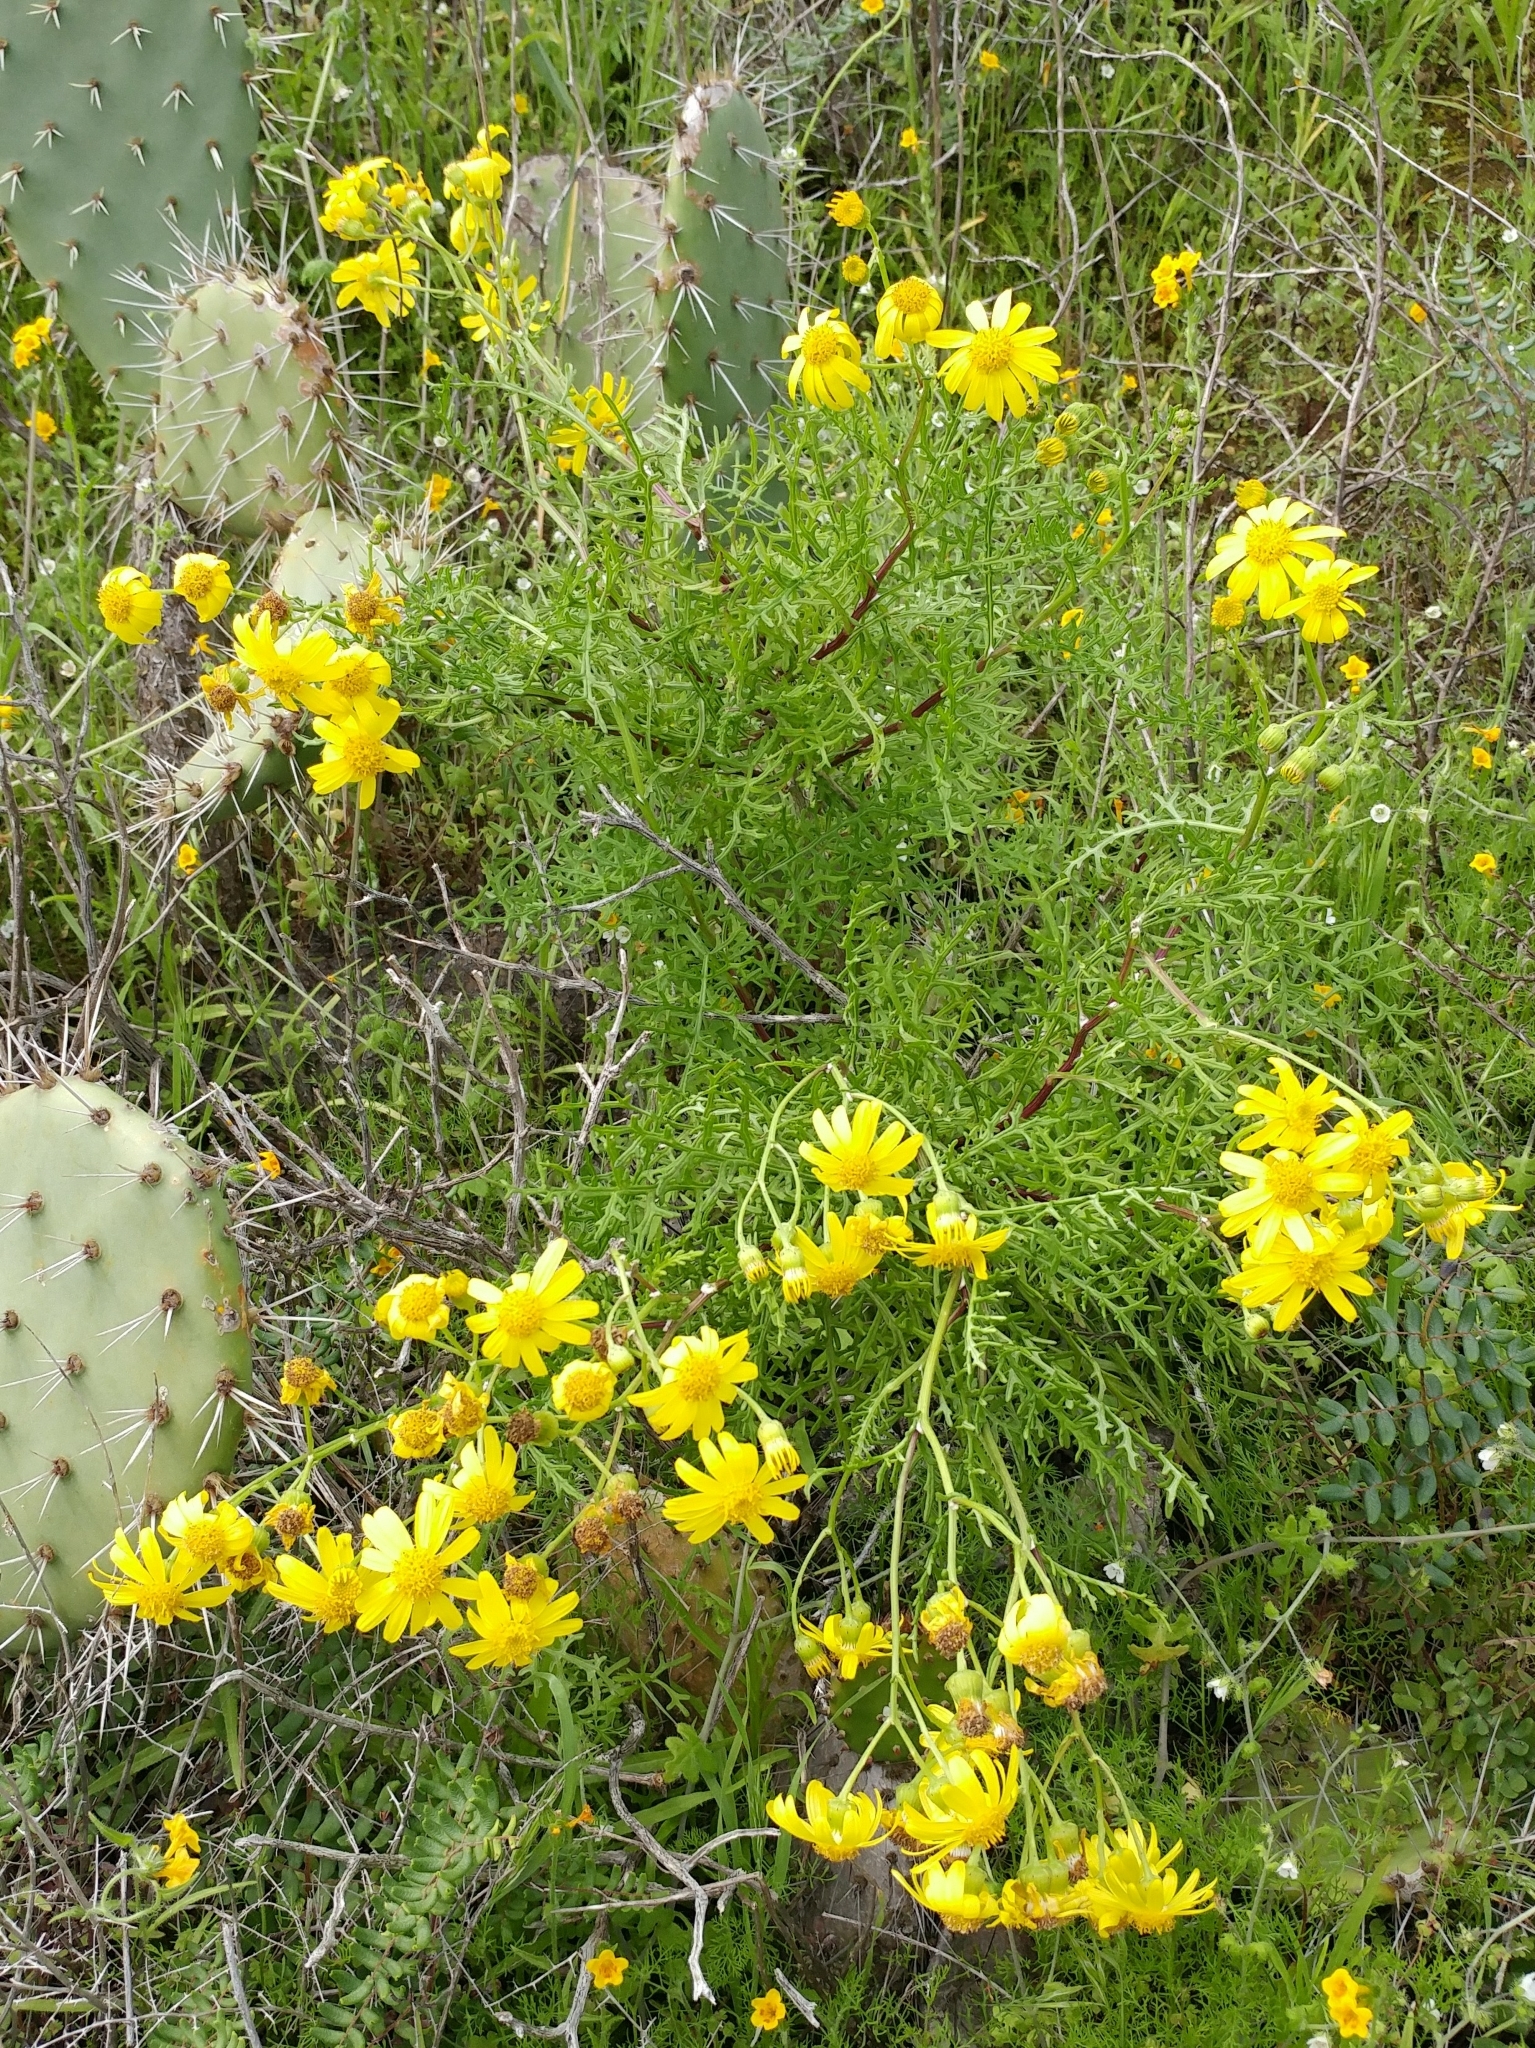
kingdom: Plantae
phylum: Tracheophyta
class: Magnoliopsida
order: Asterales
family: Asteraceae
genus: Senecio
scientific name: Senecio lyonii
